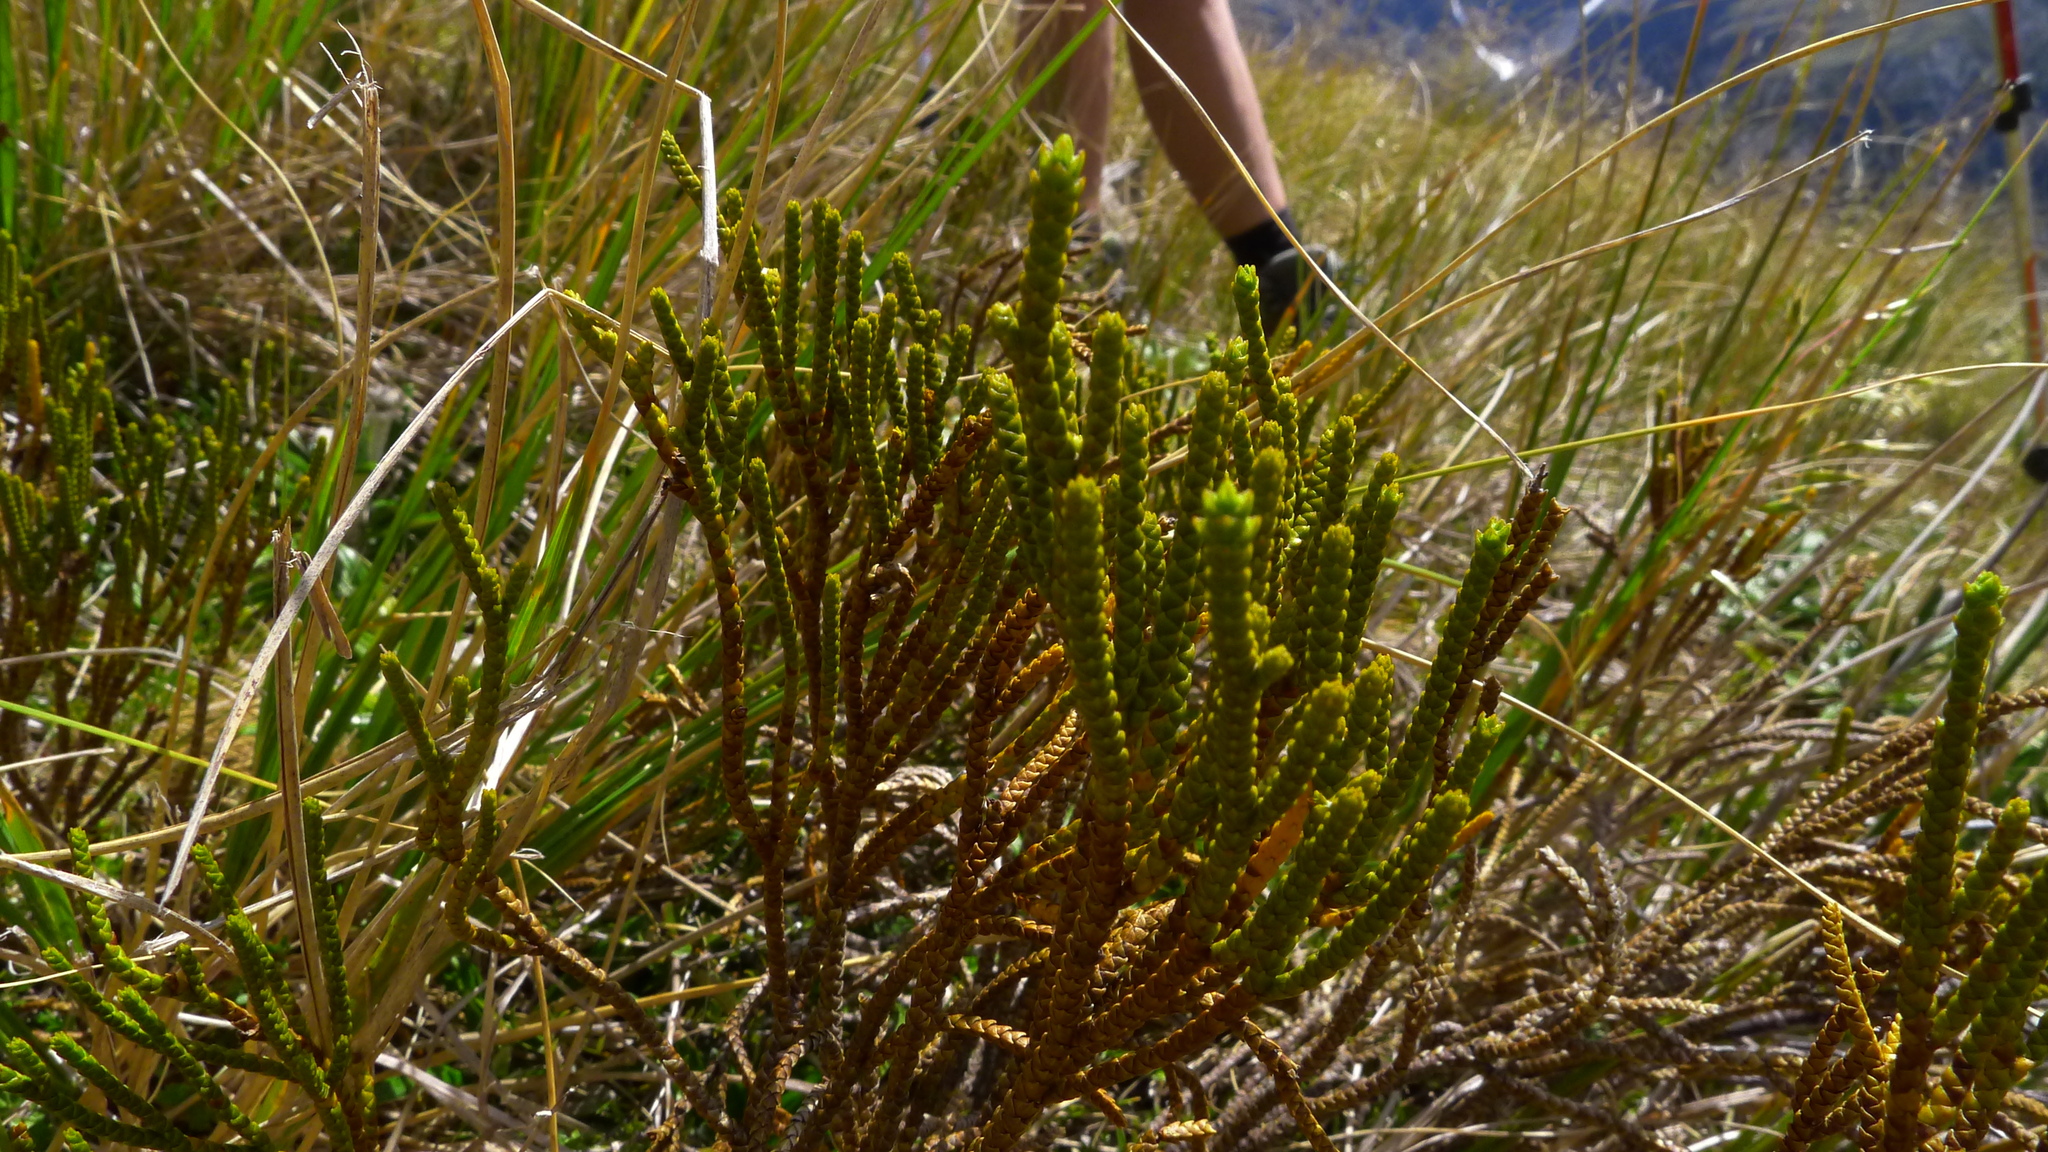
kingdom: Plantae
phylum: Tracheophyta
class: Magnoliopsida
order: Lamiales
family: Plantaginaceae
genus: Veronica
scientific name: Veronica lycopodioides
